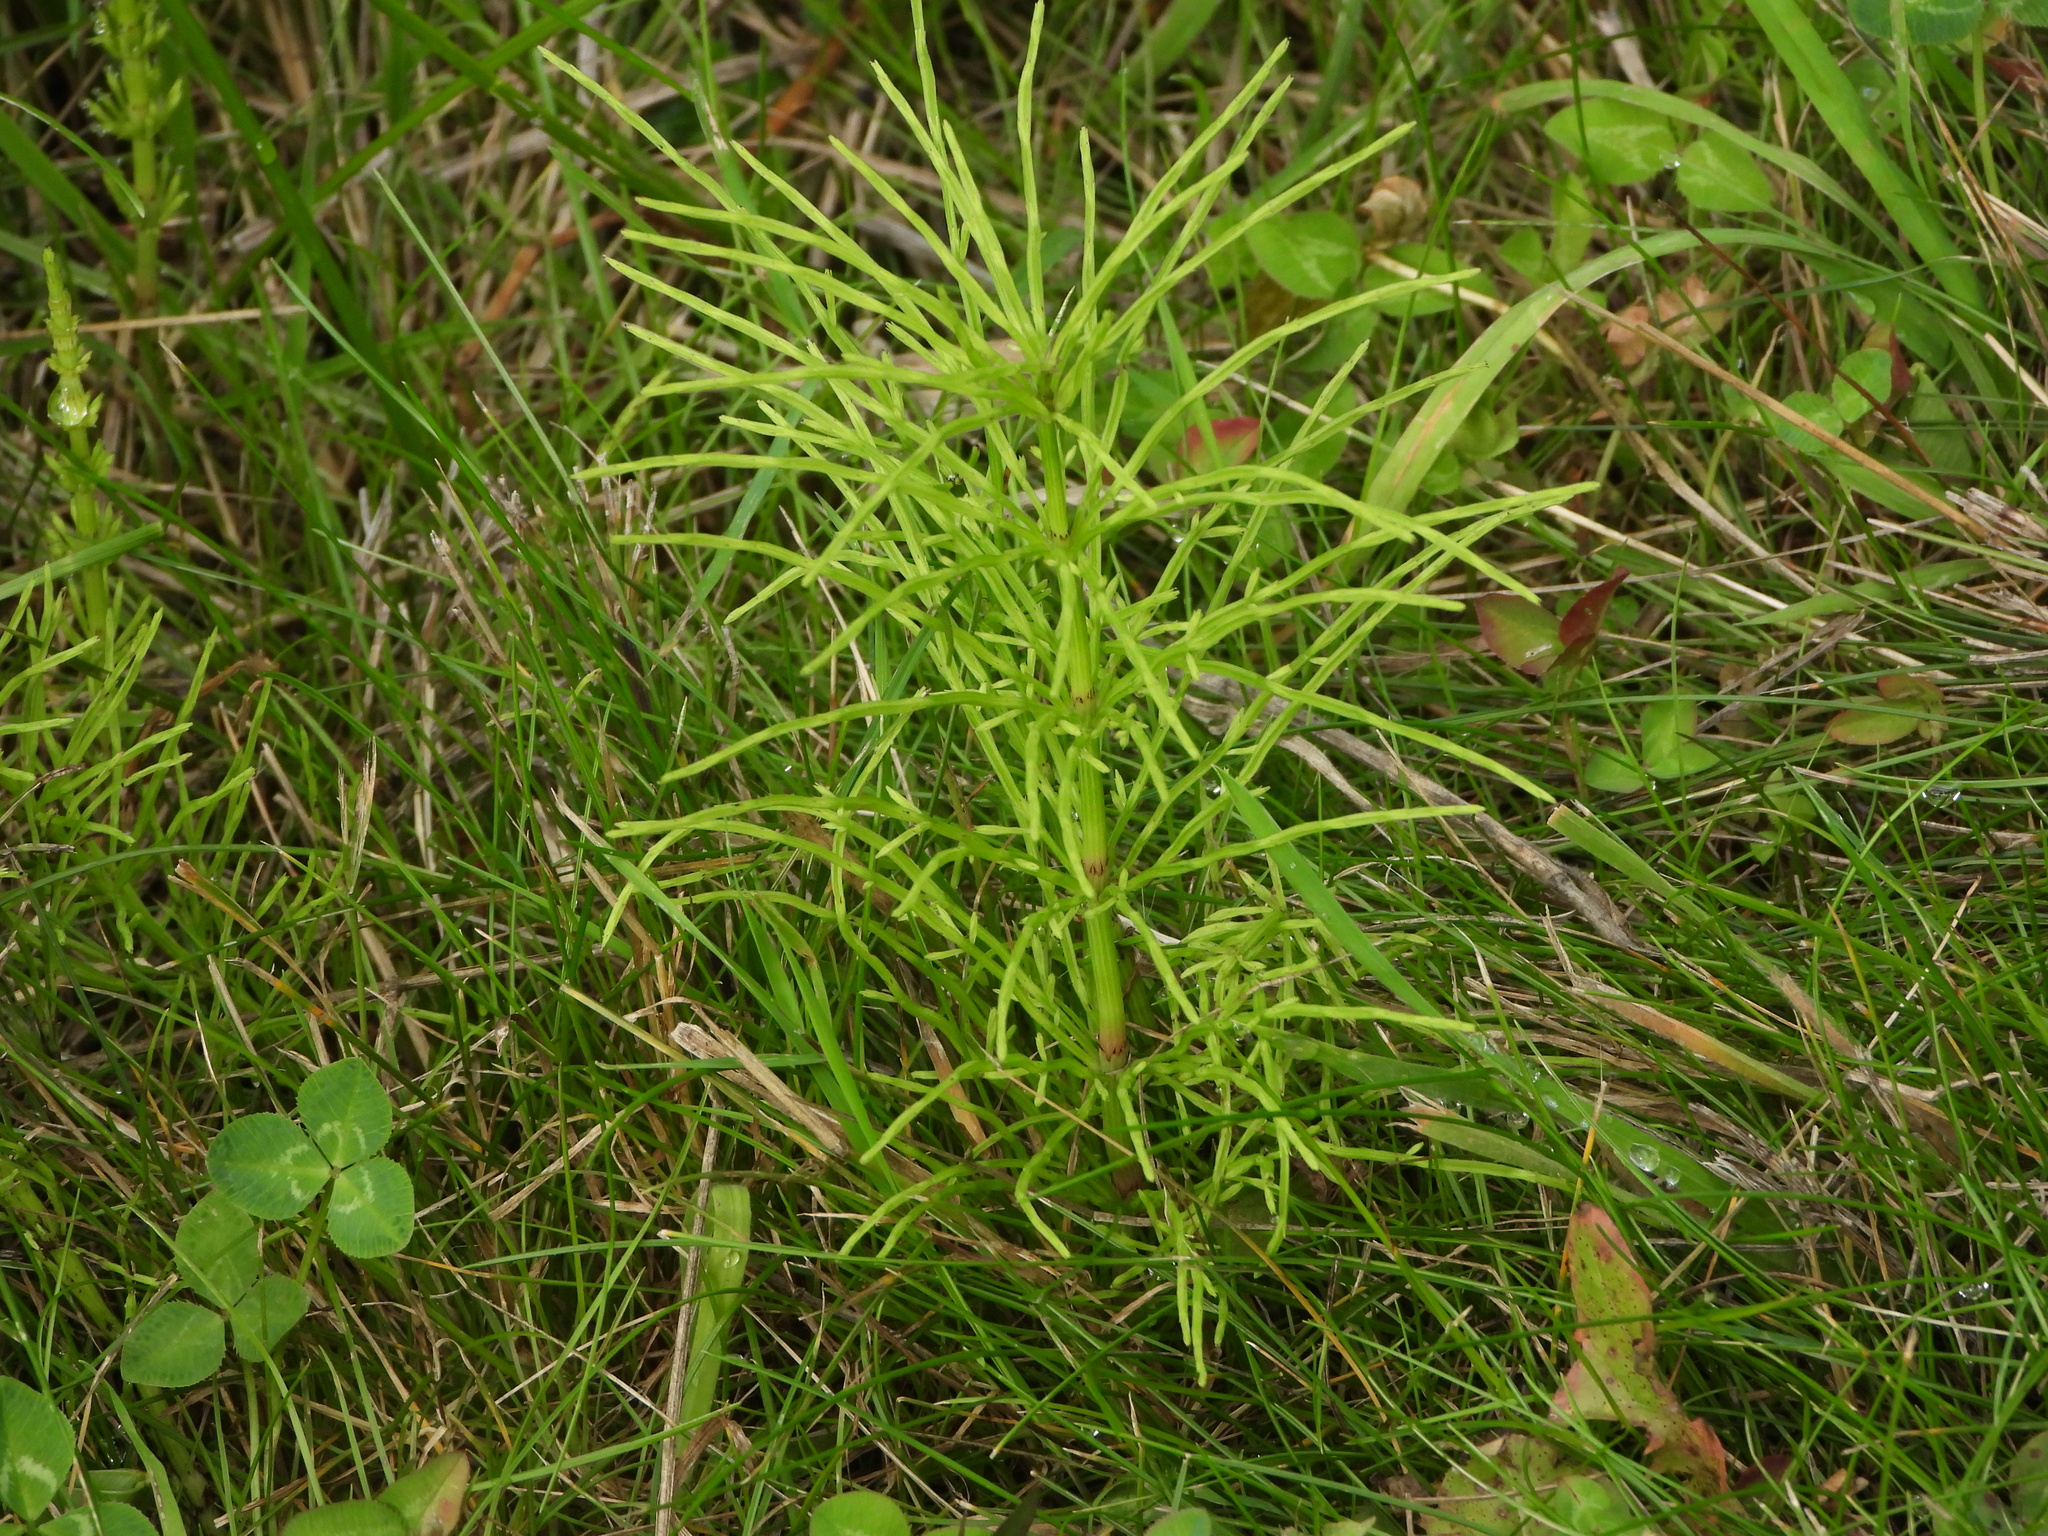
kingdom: Plantae
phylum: Tracheophyta
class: Polypodiopsida
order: Equisetales
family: Equisetaceae
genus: Equisetum
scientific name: Equisetum arvense
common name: Field horsetail
